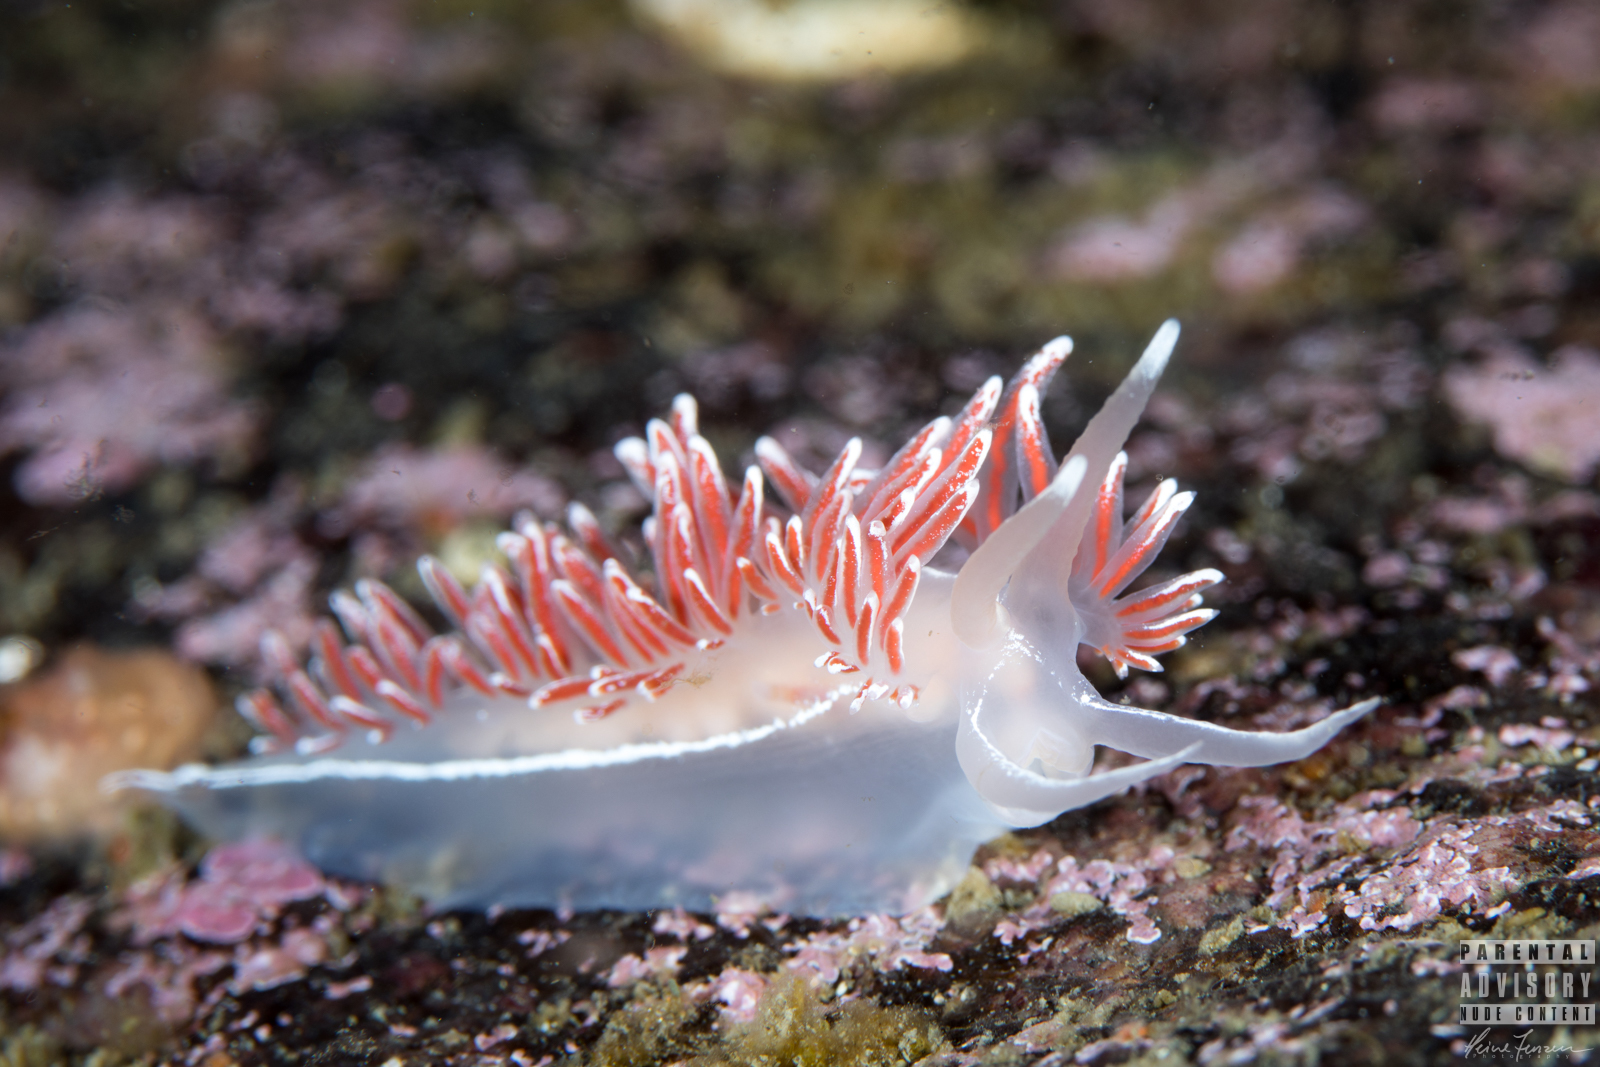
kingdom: Animalia
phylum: Mollusca
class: Gastropoda
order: Nudibranchia
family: Coryphellidae
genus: Coryphella
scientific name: Coryphella lineata
